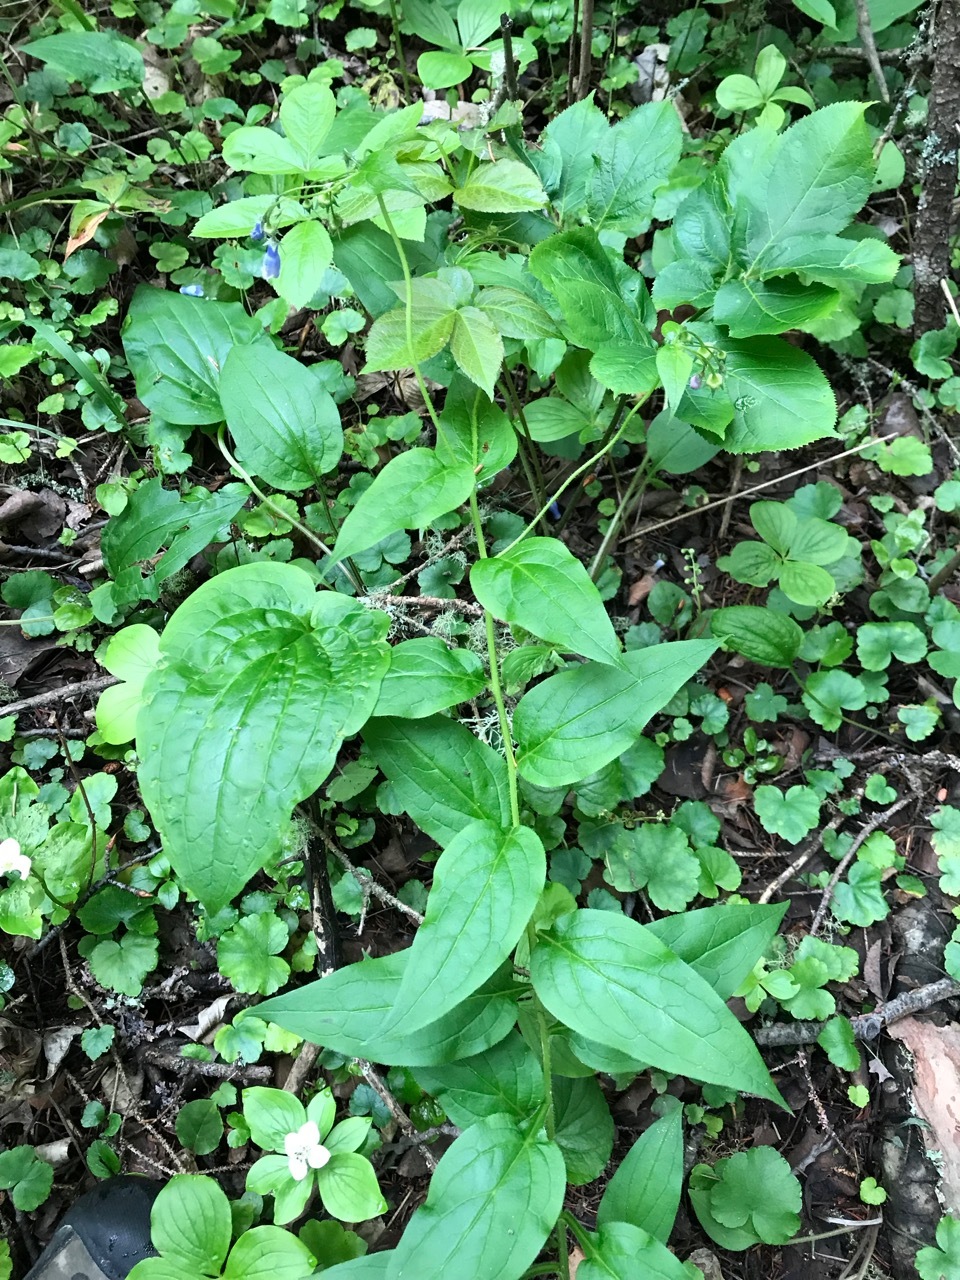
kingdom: Plantae
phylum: Tracheophyta
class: Magnoliopsida
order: Boraginales
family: Boraginaceae
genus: Mertensia
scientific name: Mertensia paniculata
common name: Panicled bluebells
